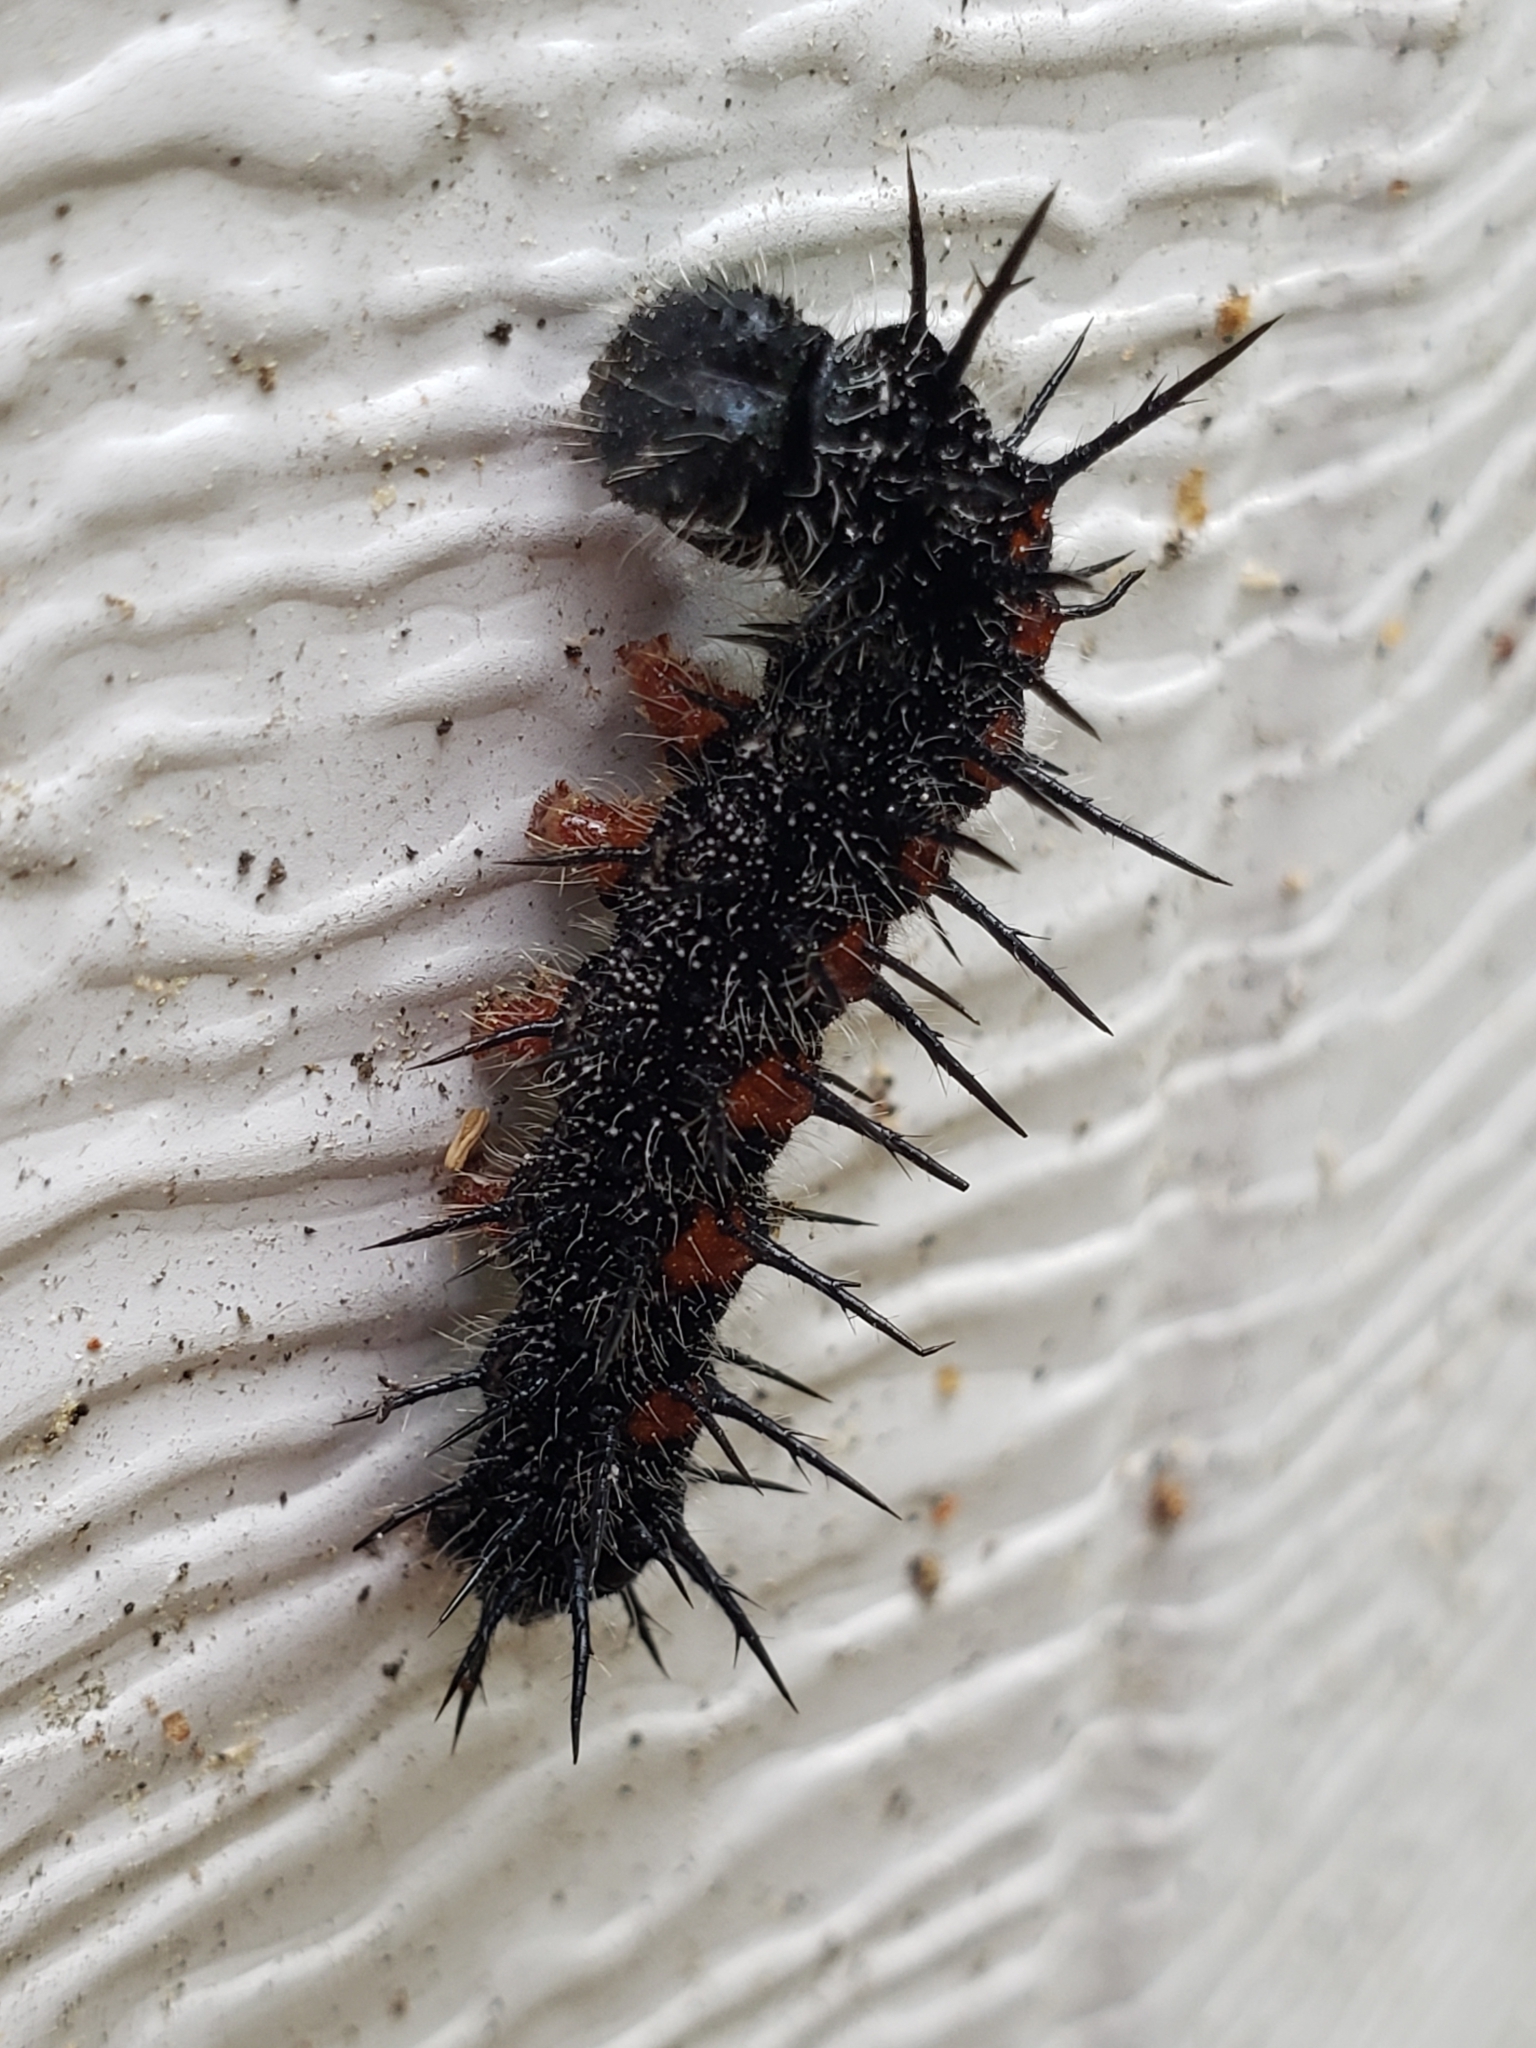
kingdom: Animalia
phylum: Arthropoda
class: Insecta
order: Lepidoptera
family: Nymphalidae
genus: Nymphalis
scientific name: Nymphalis antiopa
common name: Camberwell beauty
